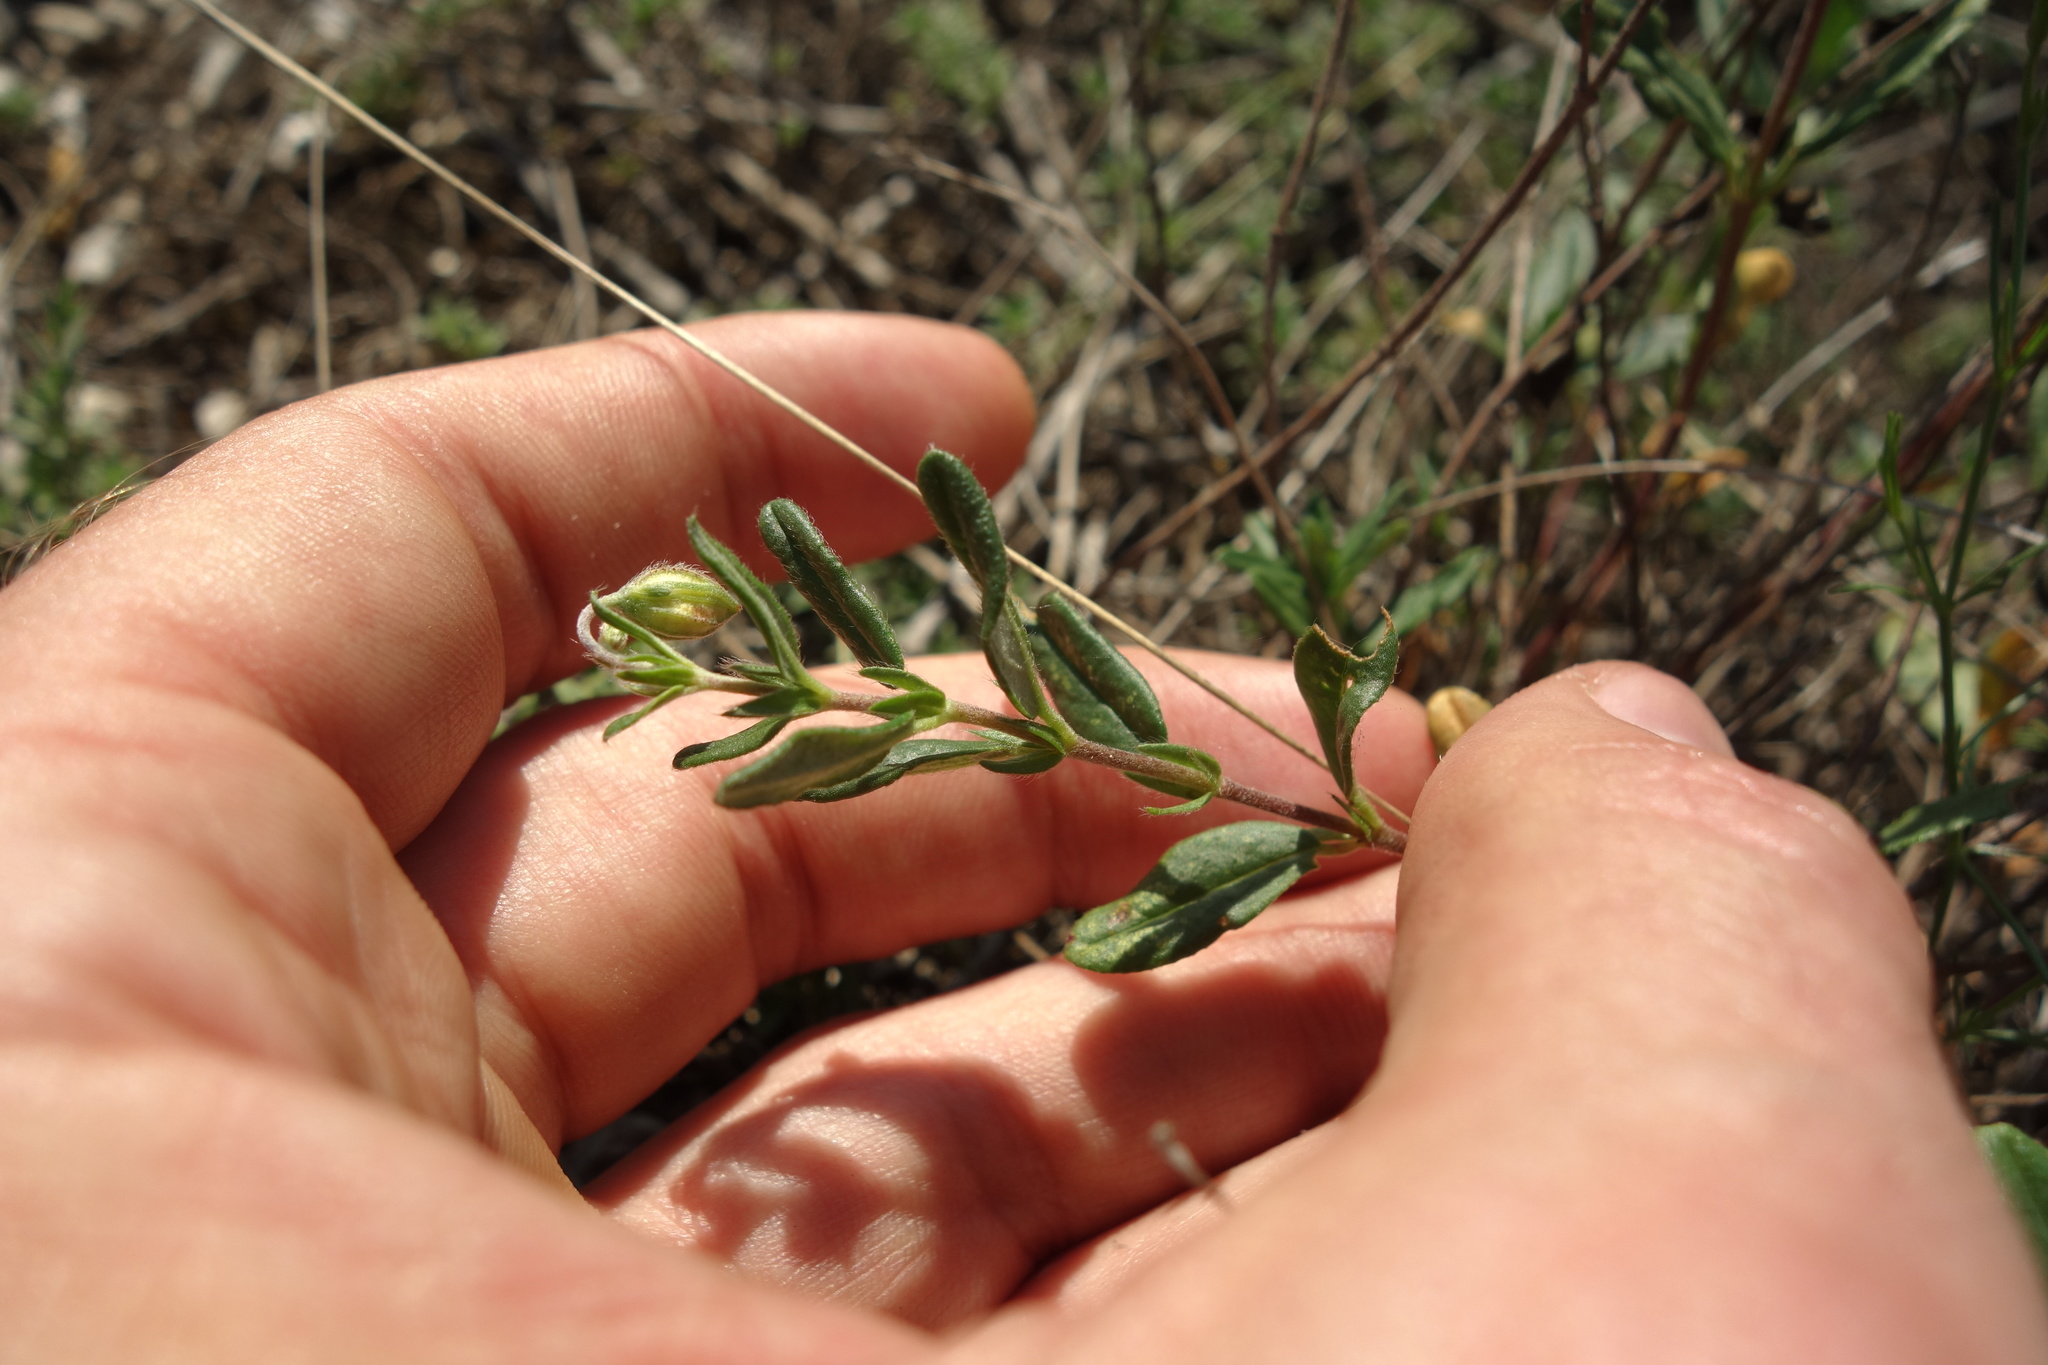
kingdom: Plantae
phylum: Tracheophyta
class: Magnoliopsida
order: Malvales
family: Cistaceae
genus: Helianthemum
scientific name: Helianthemum nummularium
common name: Common rock-rose
